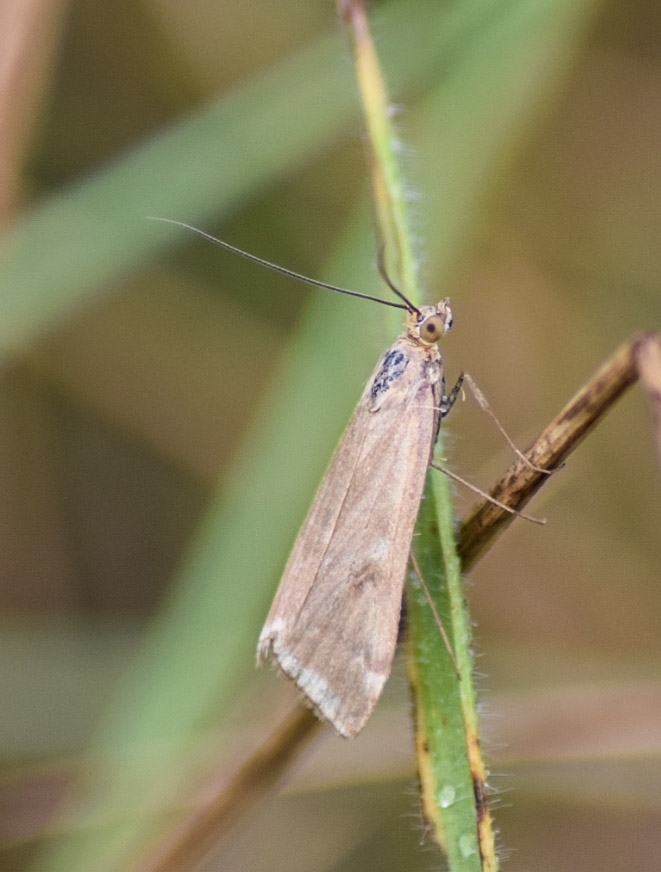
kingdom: Animalia
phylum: Arthropoda
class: Insecta
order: Lepidoptera
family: Crambidae
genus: Loxostege
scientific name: Loxostege sticticalis
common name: Crambid moth
